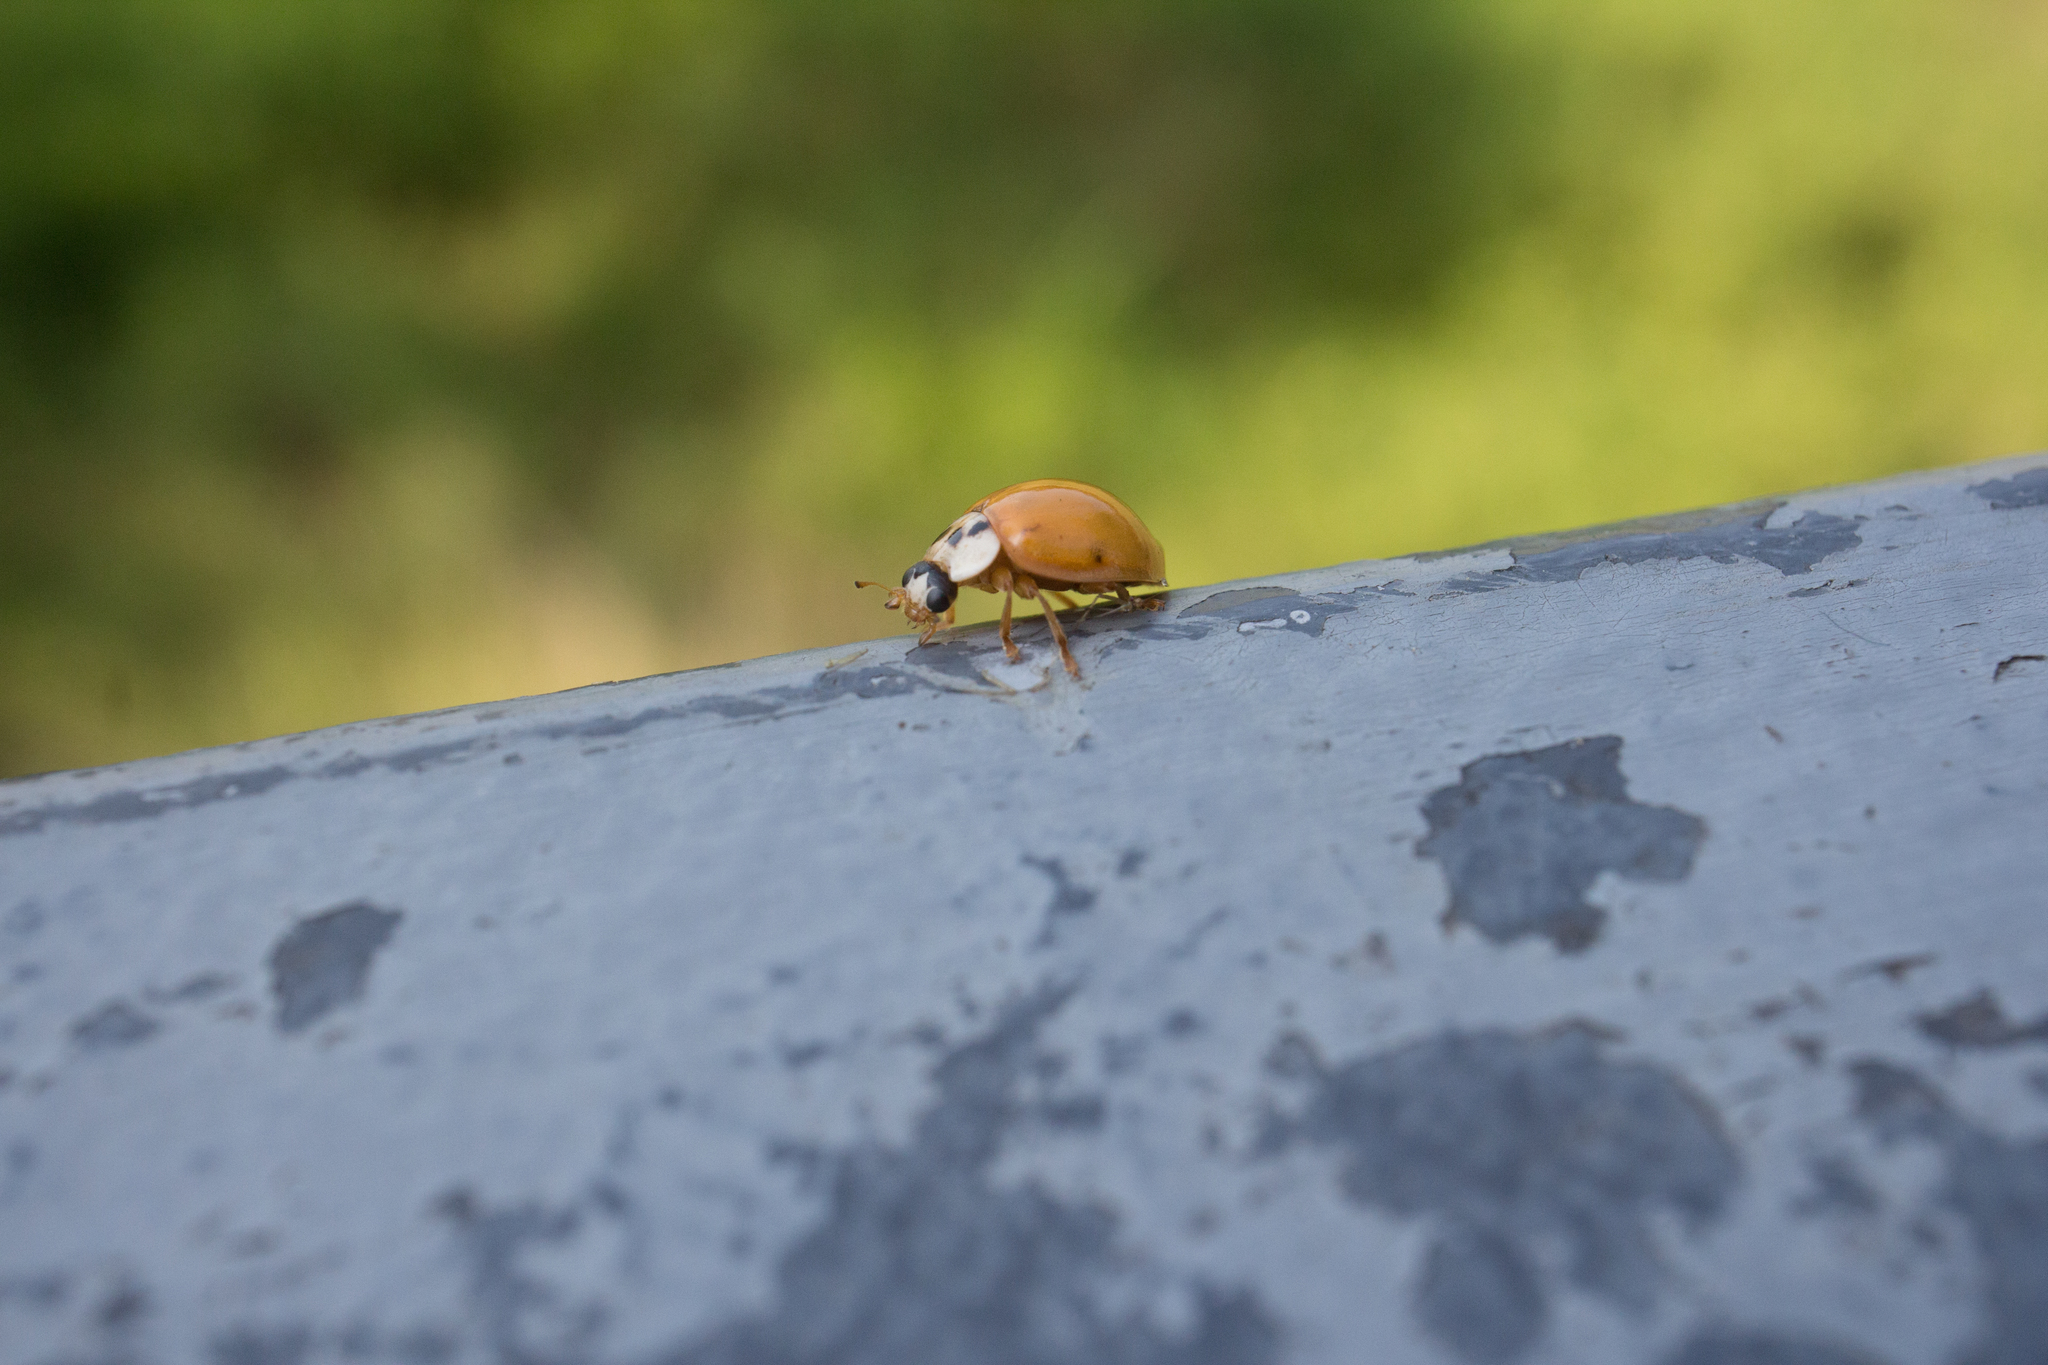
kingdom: Animalia
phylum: Arthropoda
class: Insecta
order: Coleoptera
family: Coccinellidae
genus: Harmonia
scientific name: Harmonia axyridis
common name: Harlequin ladybird
